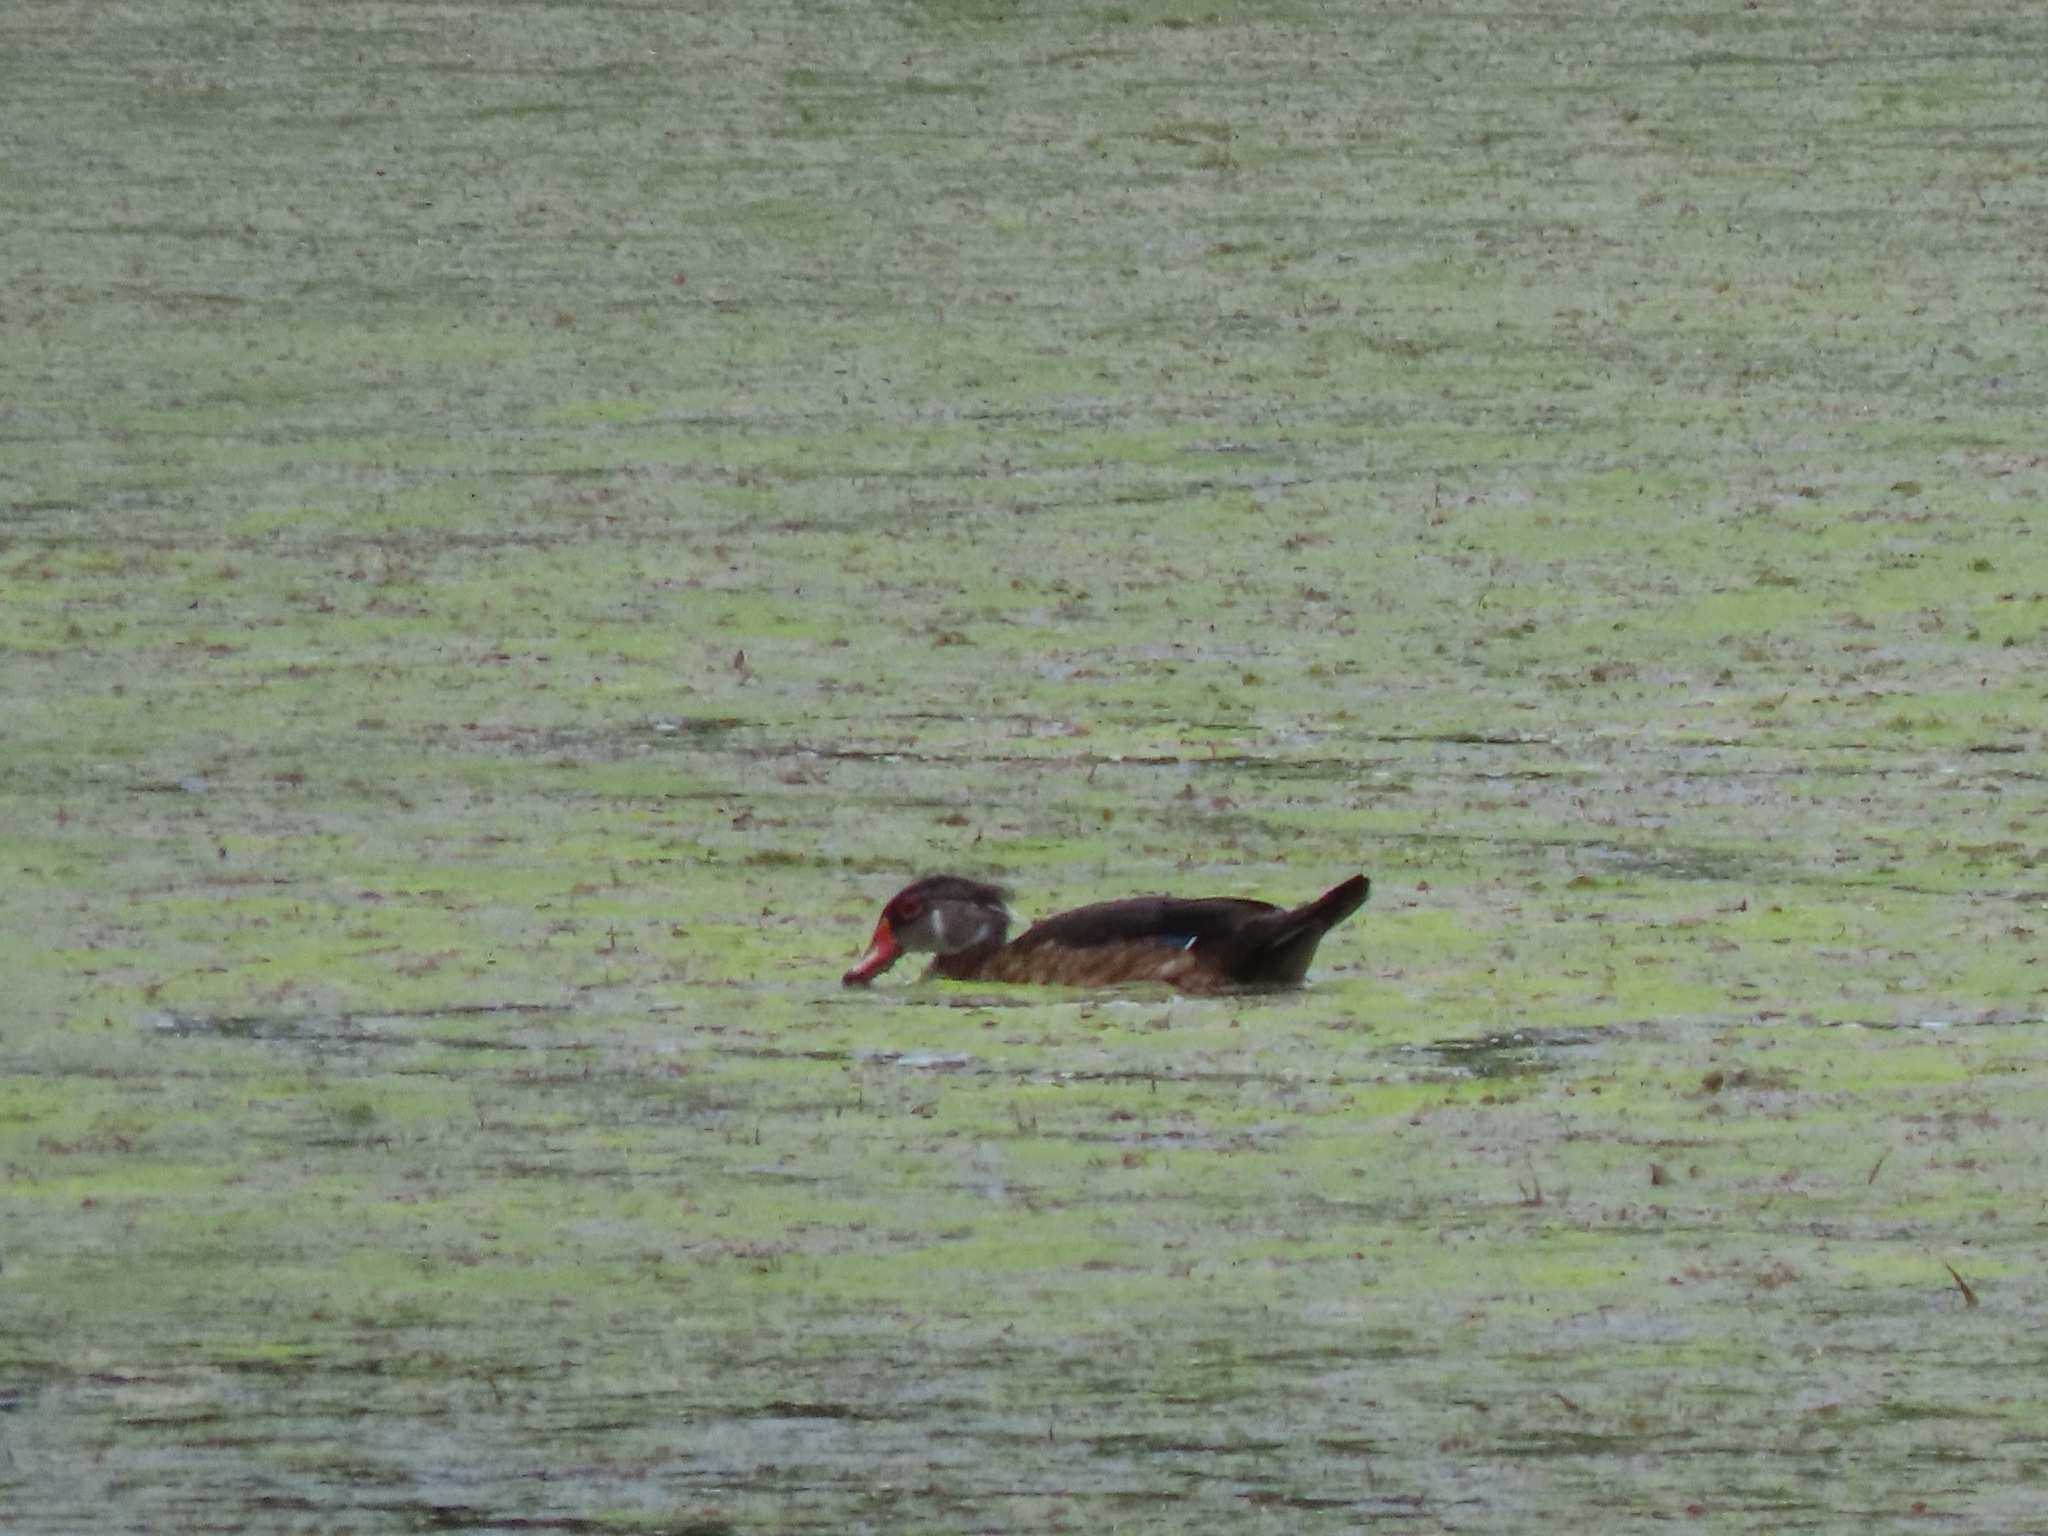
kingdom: Animalia
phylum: Chordata
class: Aves
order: Anseriformes
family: Anatidae
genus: Aix
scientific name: Aix sponsa
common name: Wood duck
